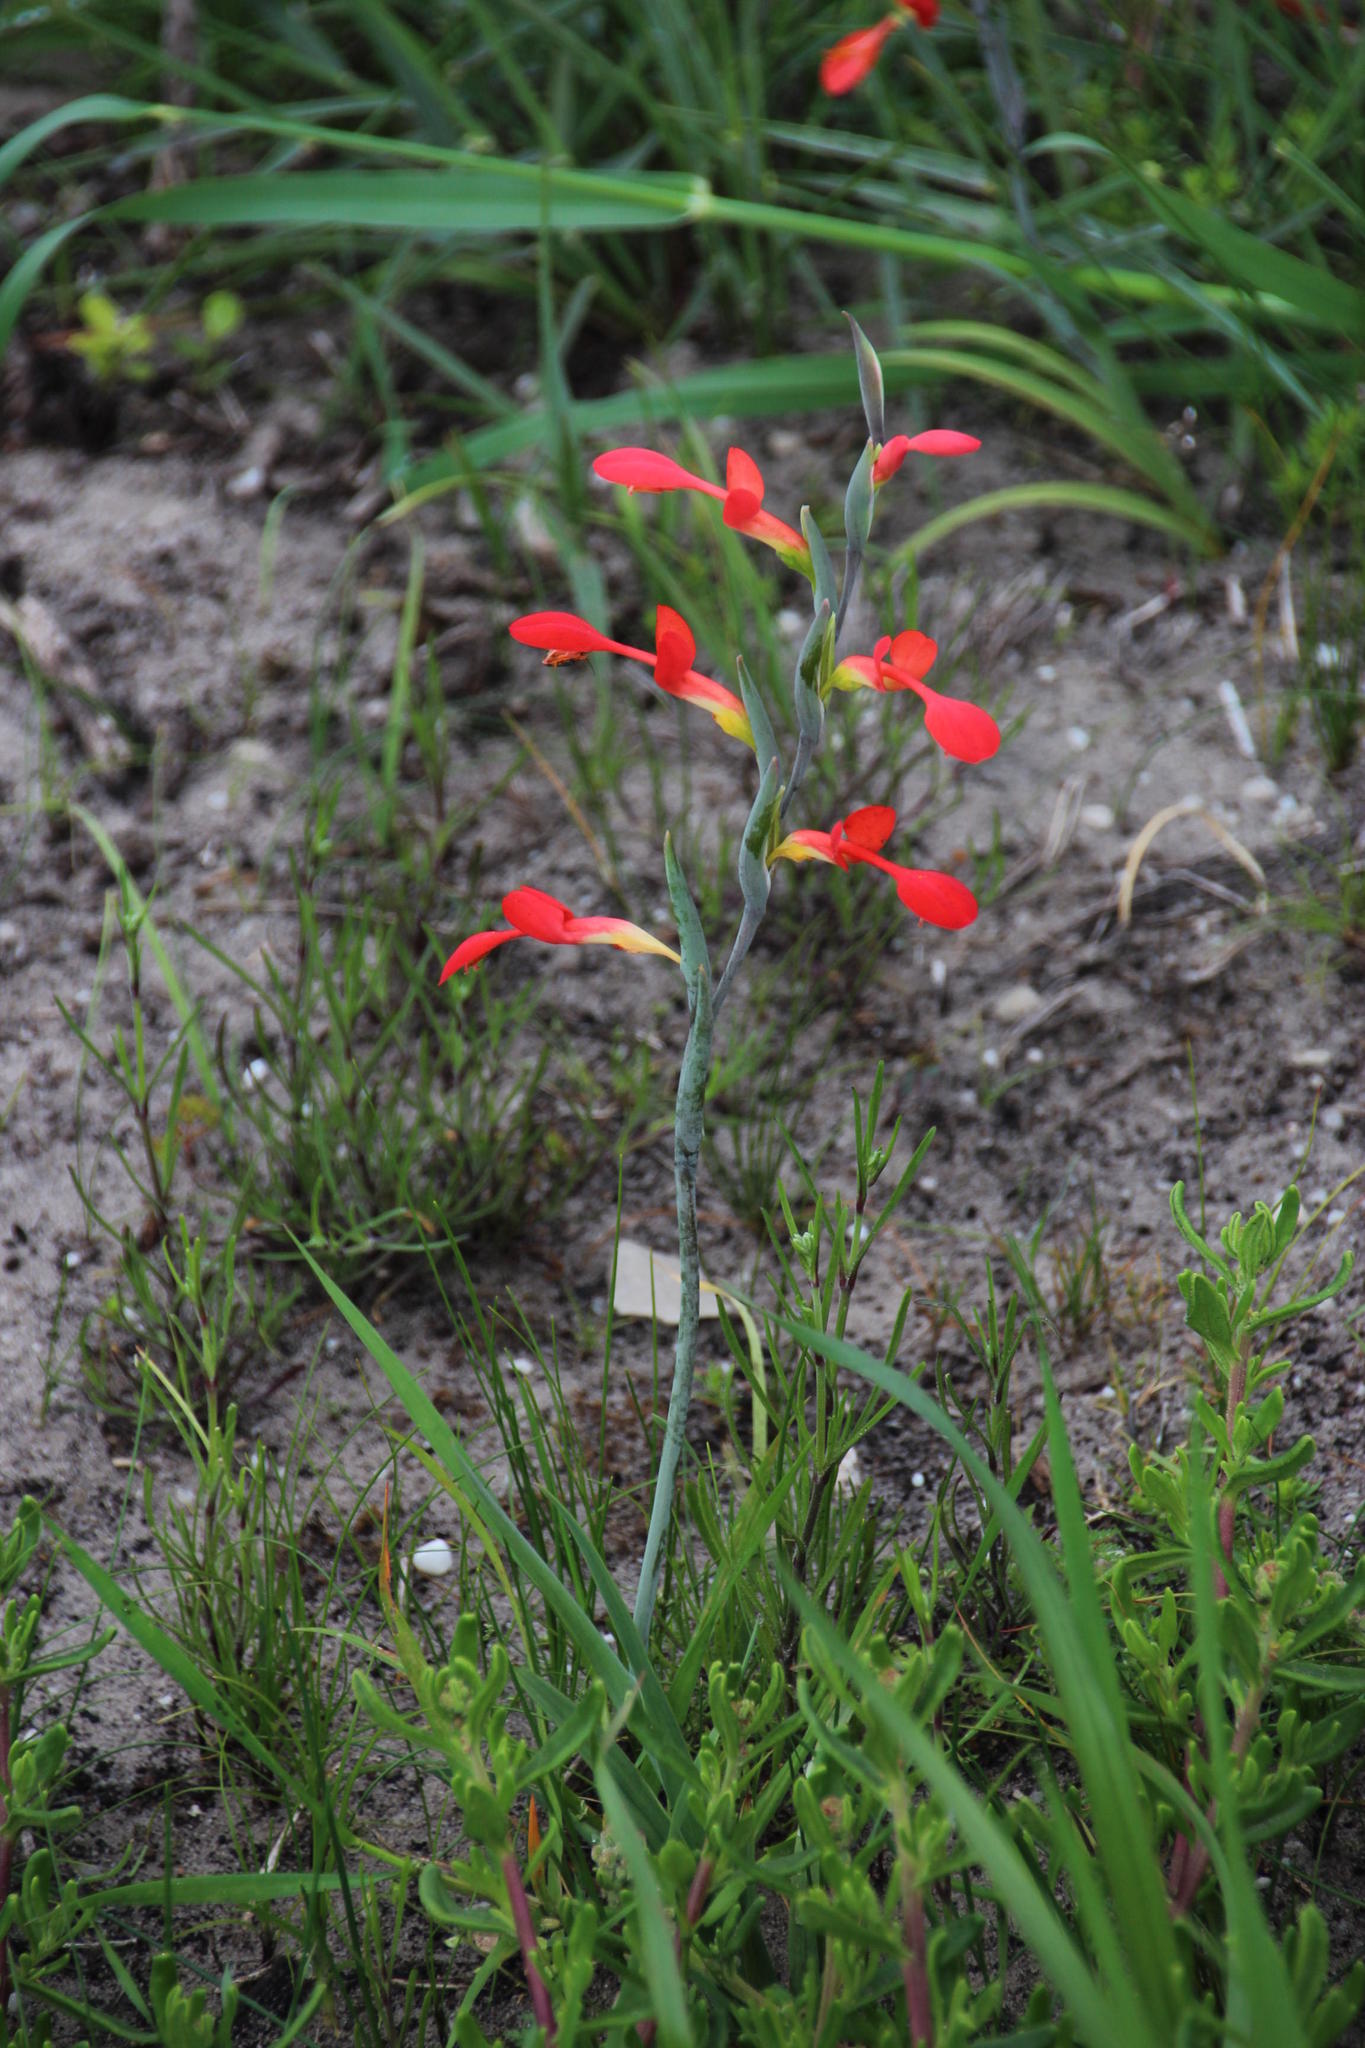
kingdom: Plantae
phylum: Tracheophyta
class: Liliopsida
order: Asparagales
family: Iridaceae
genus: Gladiolus
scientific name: Gladiolus cunonius
